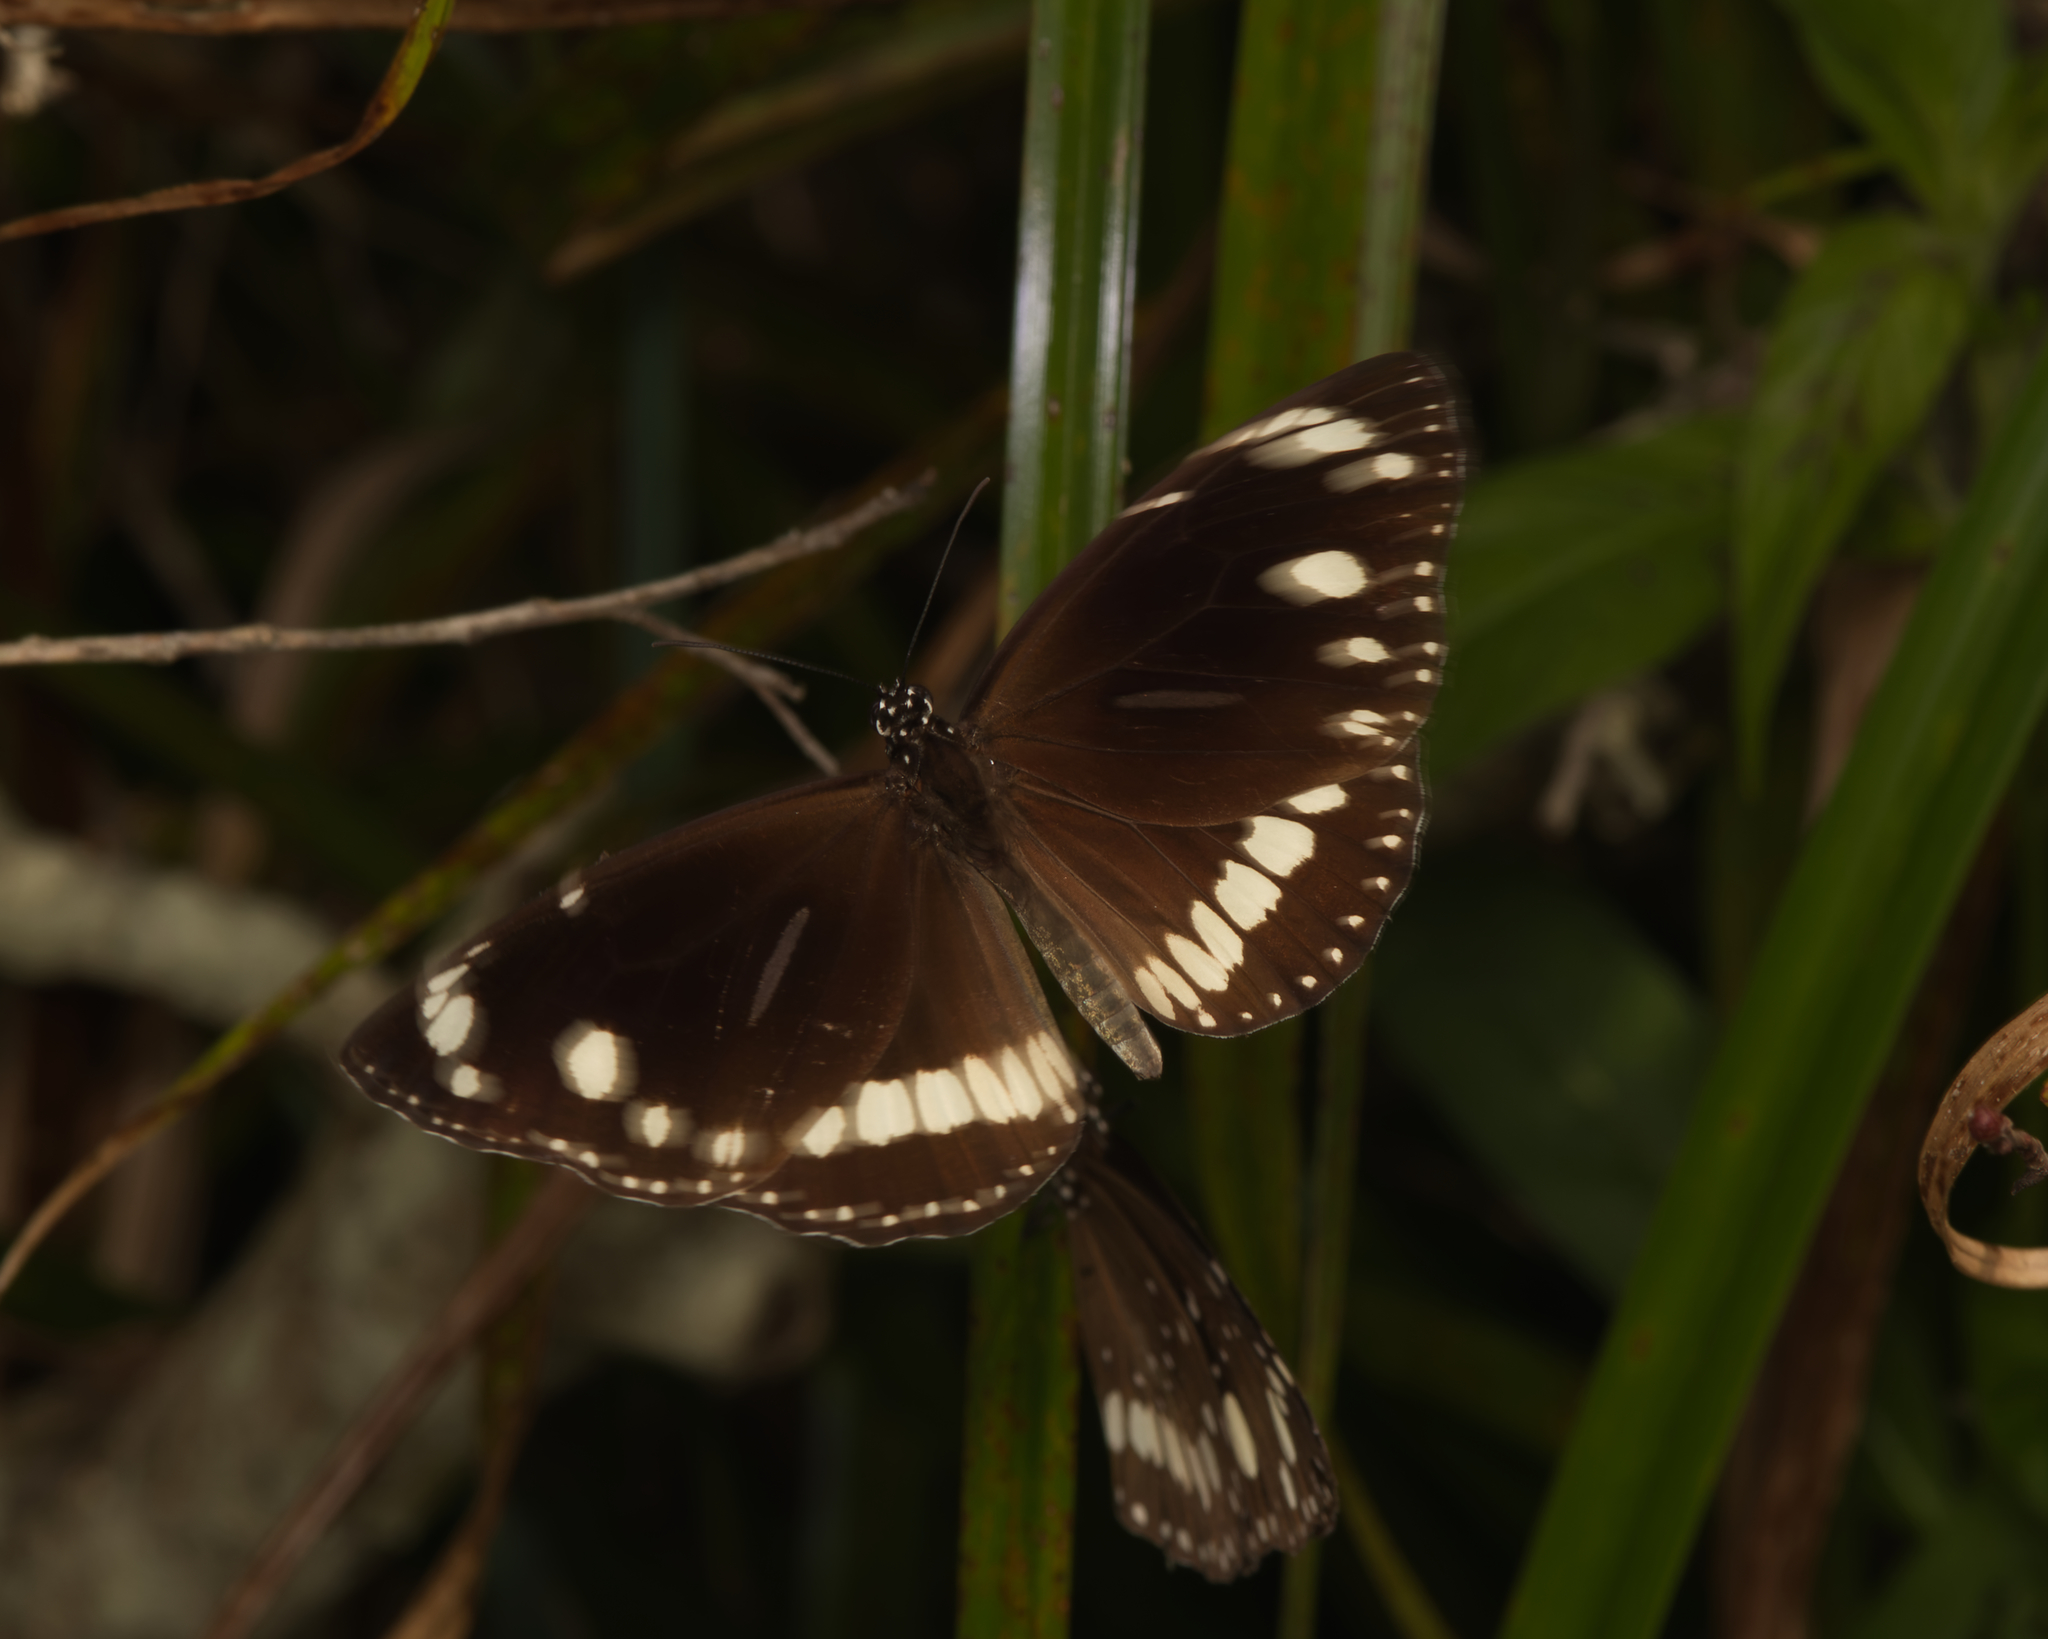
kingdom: Animalia
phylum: Arthropoda
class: Insecta
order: Lepidoptera
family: Nymphalidae
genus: Euploea
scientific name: Euploea core
